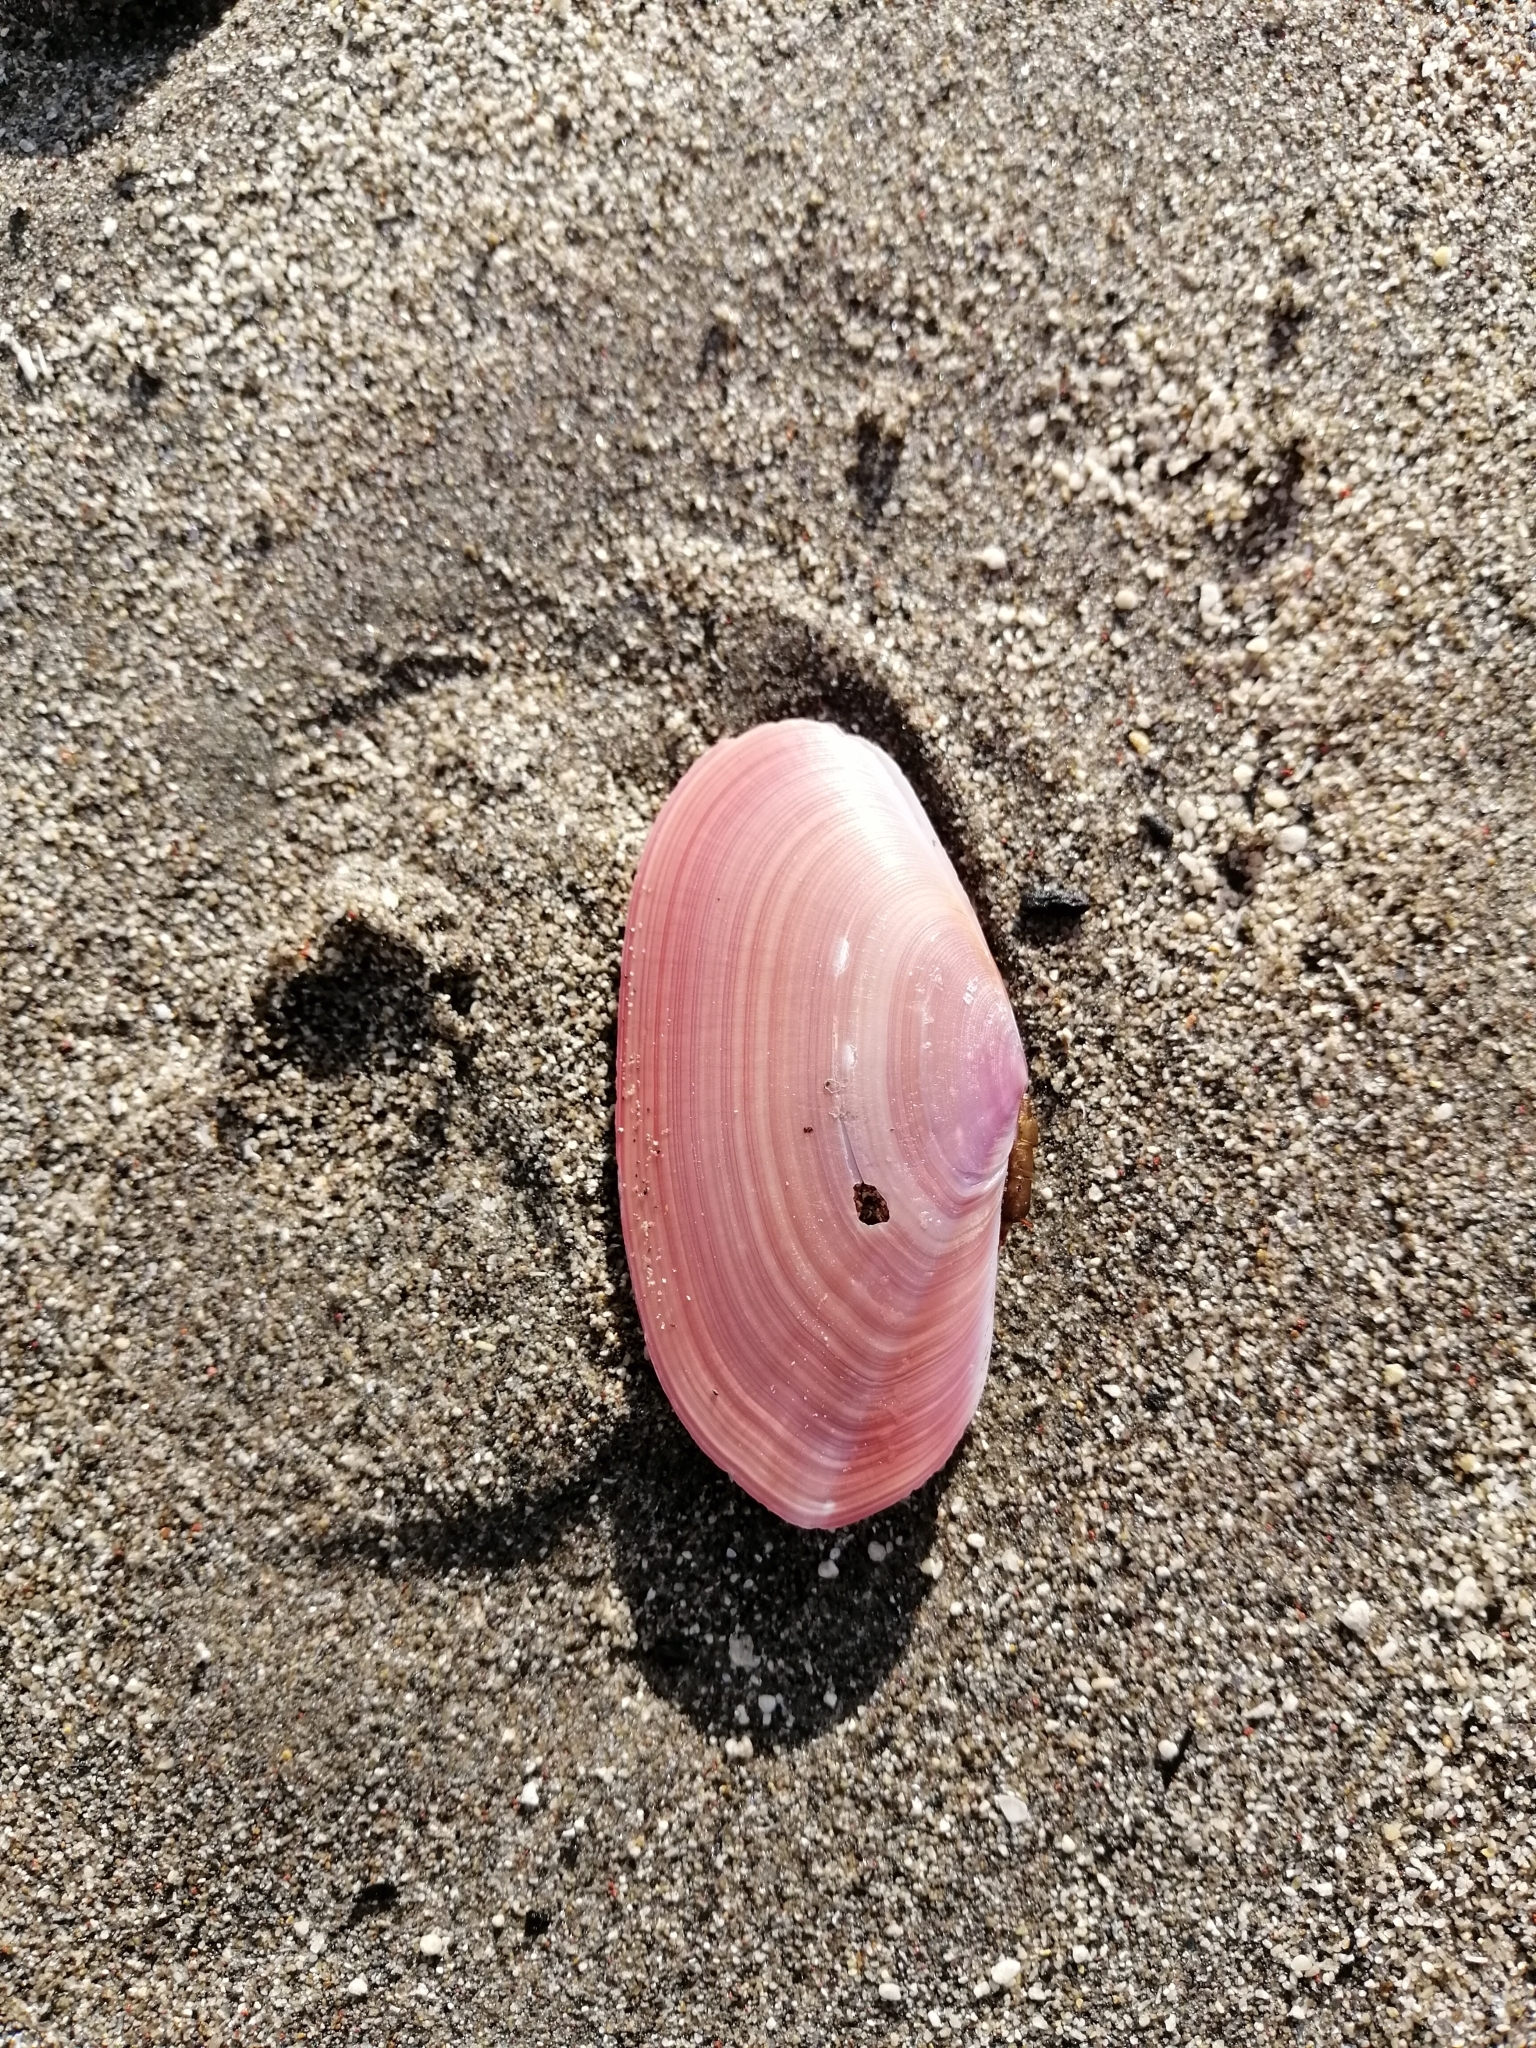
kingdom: Animalia
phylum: Mollusca
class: Bivalvia
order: Cardiida
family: Psammobiidae
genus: Gari
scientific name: Gari lineolata
